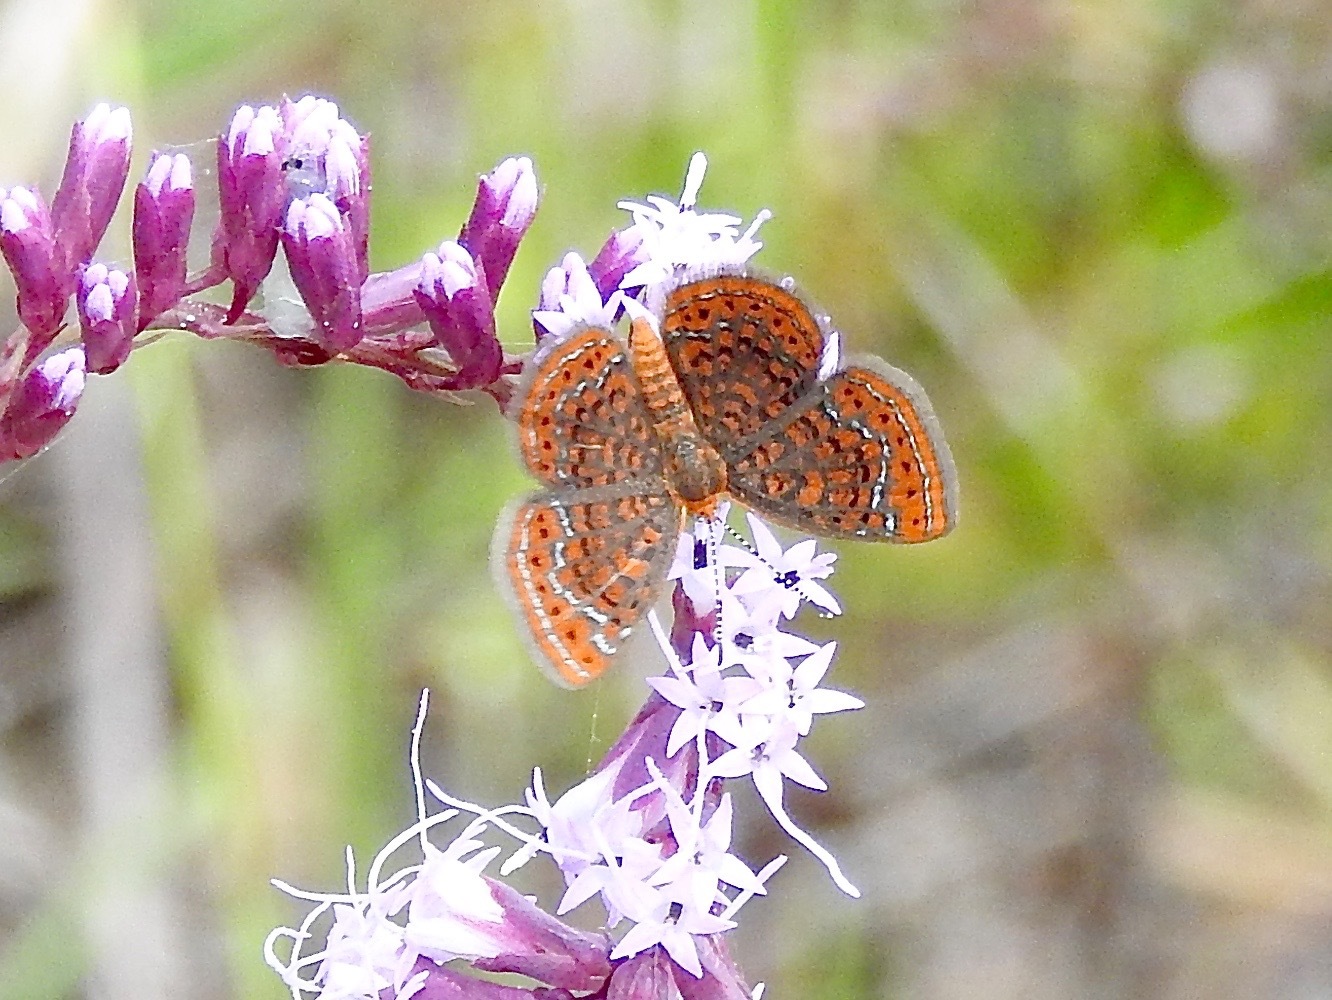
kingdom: Animalia
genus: Calephelis
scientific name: Calephelis virginiensis
